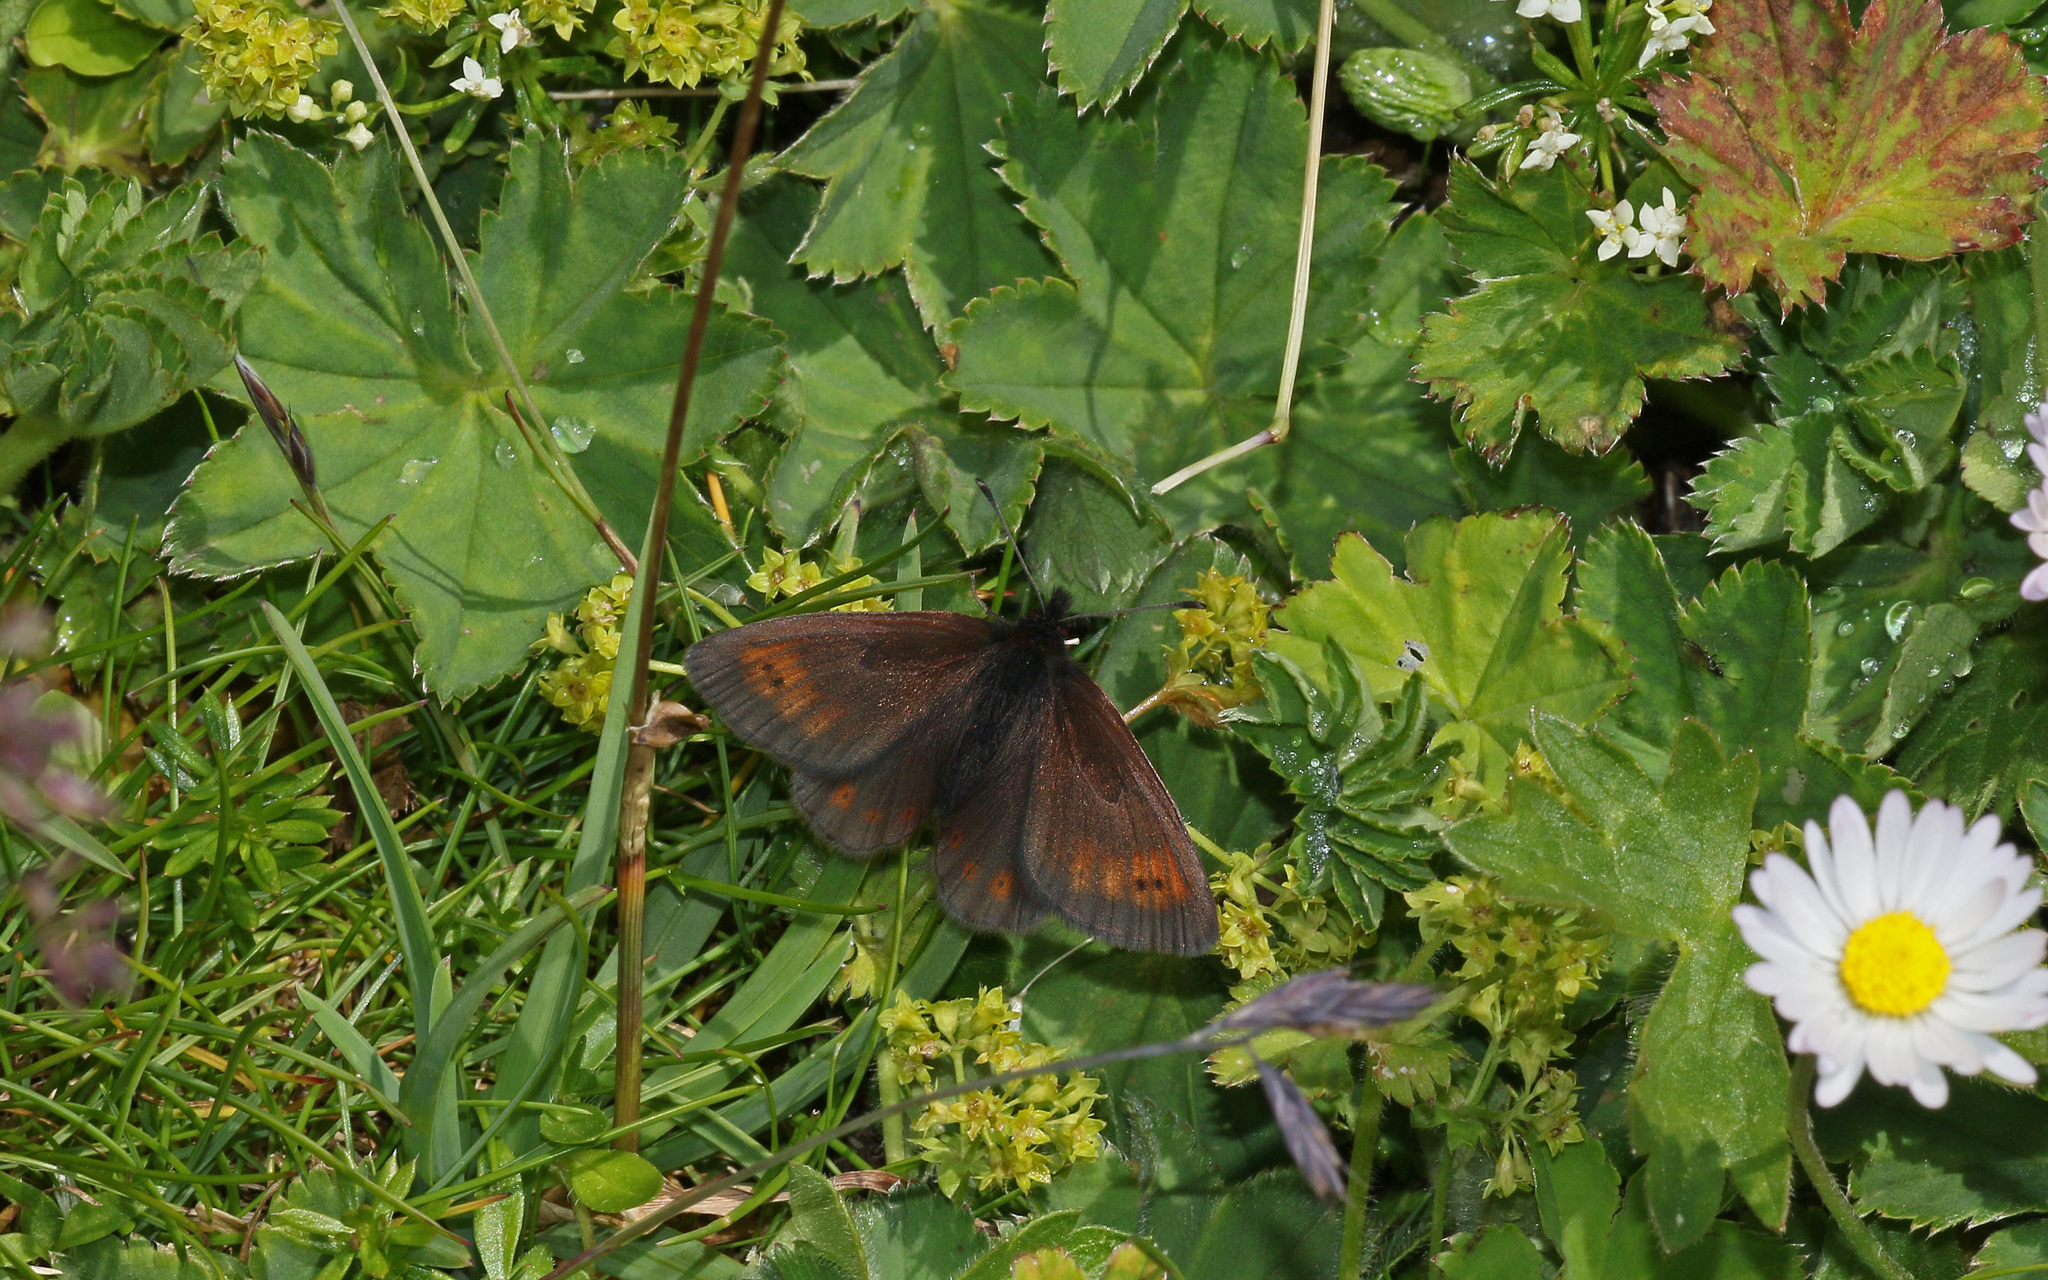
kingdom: Animalia
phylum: Arthropoda
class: Insecta
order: Lepidoptera
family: Nymphalidae
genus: Erebia
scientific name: Erebia epiphron
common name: Mountain ringlet
